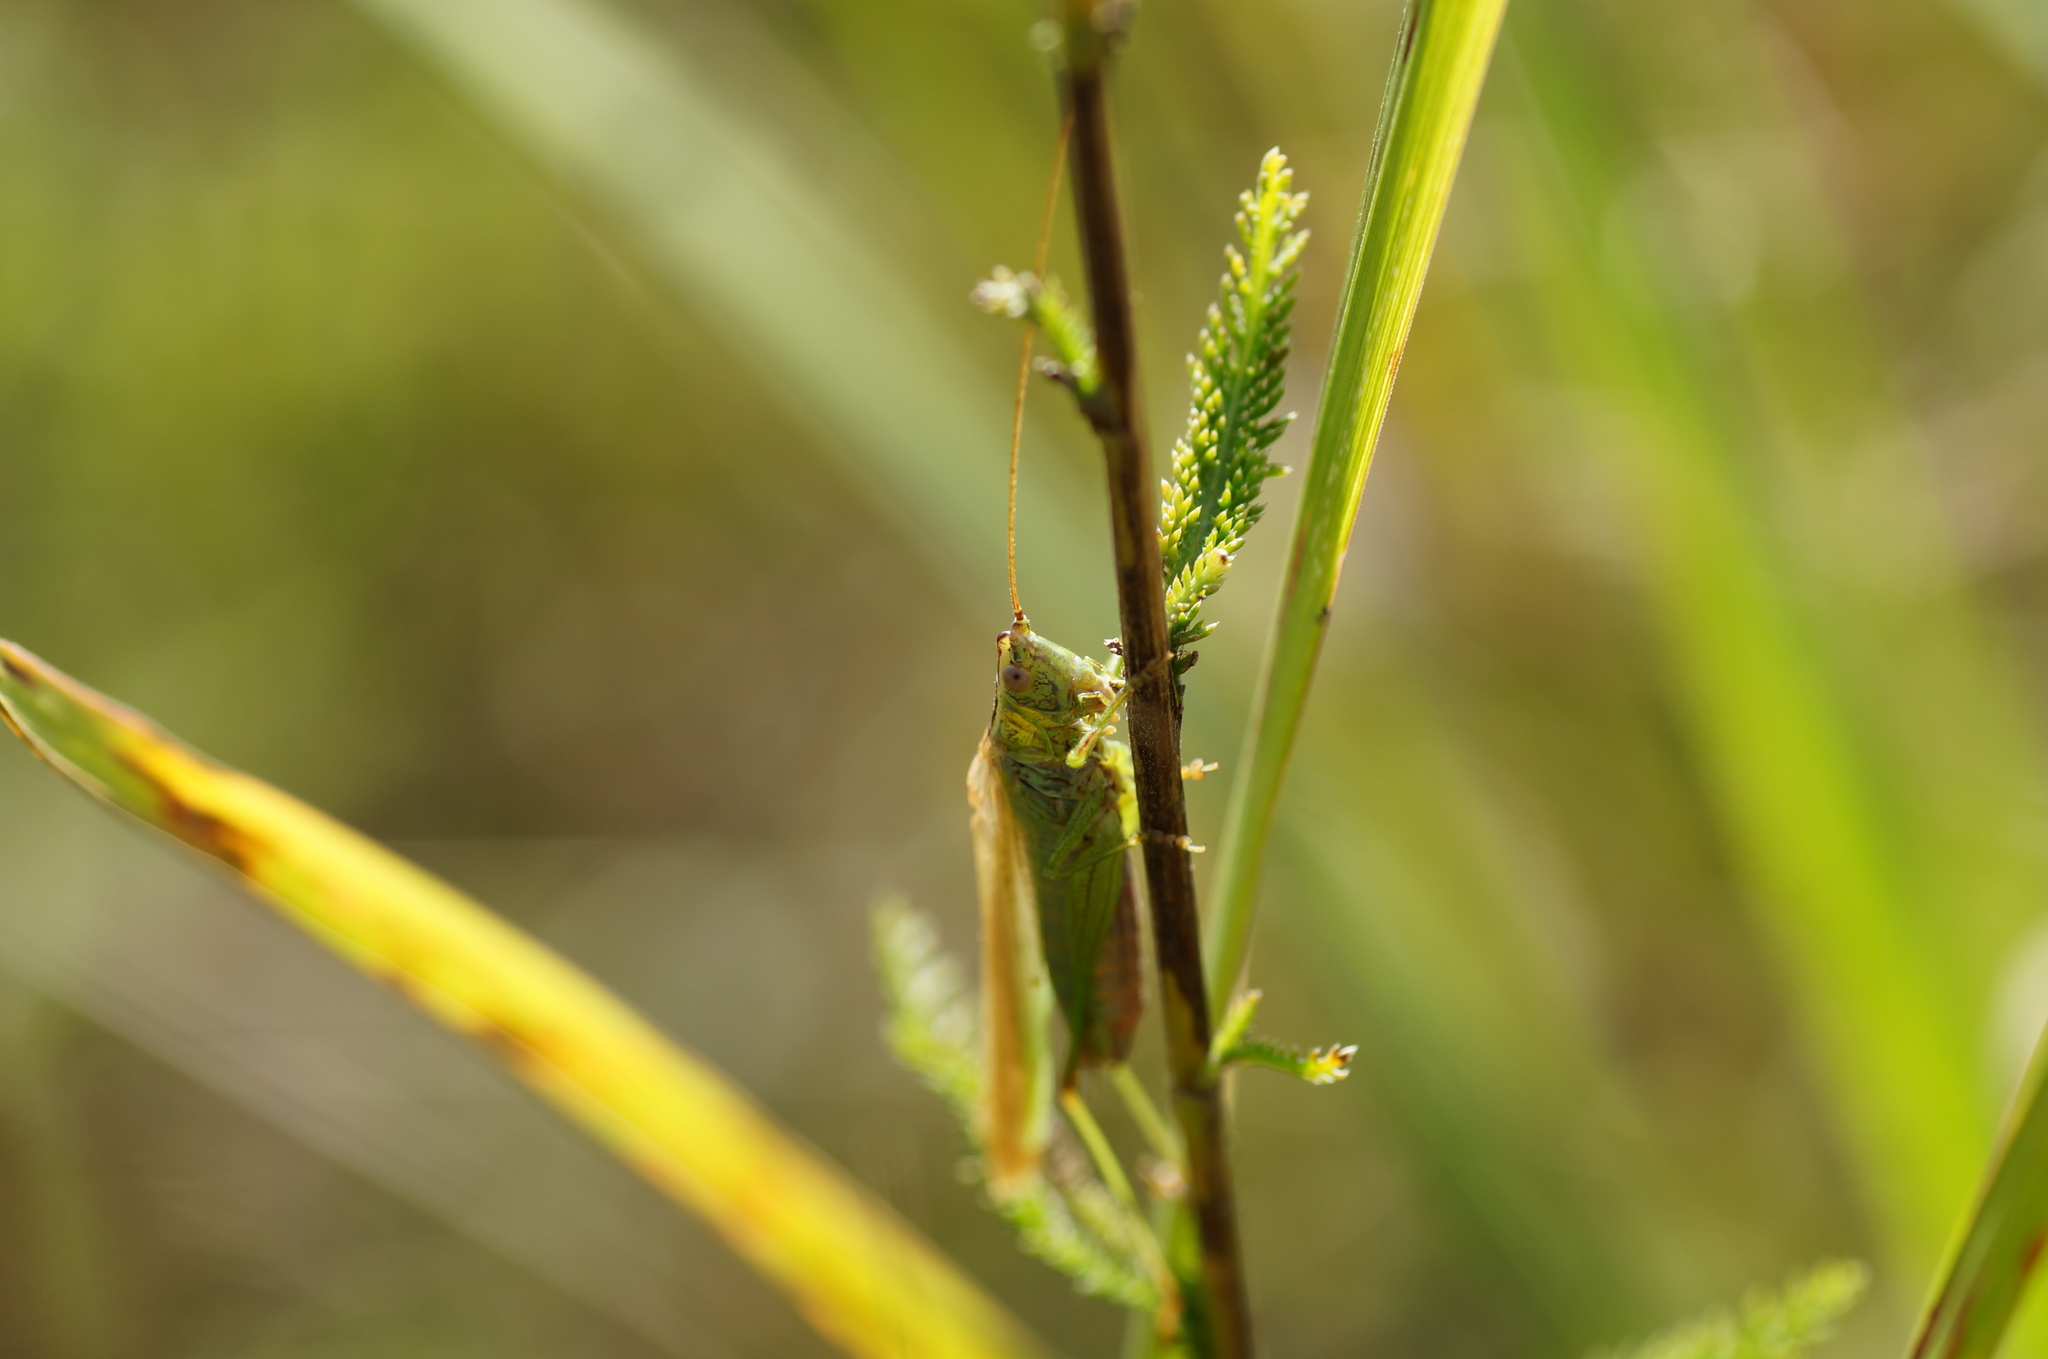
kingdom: Animalia
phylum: Arthropoda
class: Insecta
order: Orthoptera
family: Tettigoniidae
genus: Conocephalus
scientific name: Conocephalus fuscus
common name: Long-winged conehead
